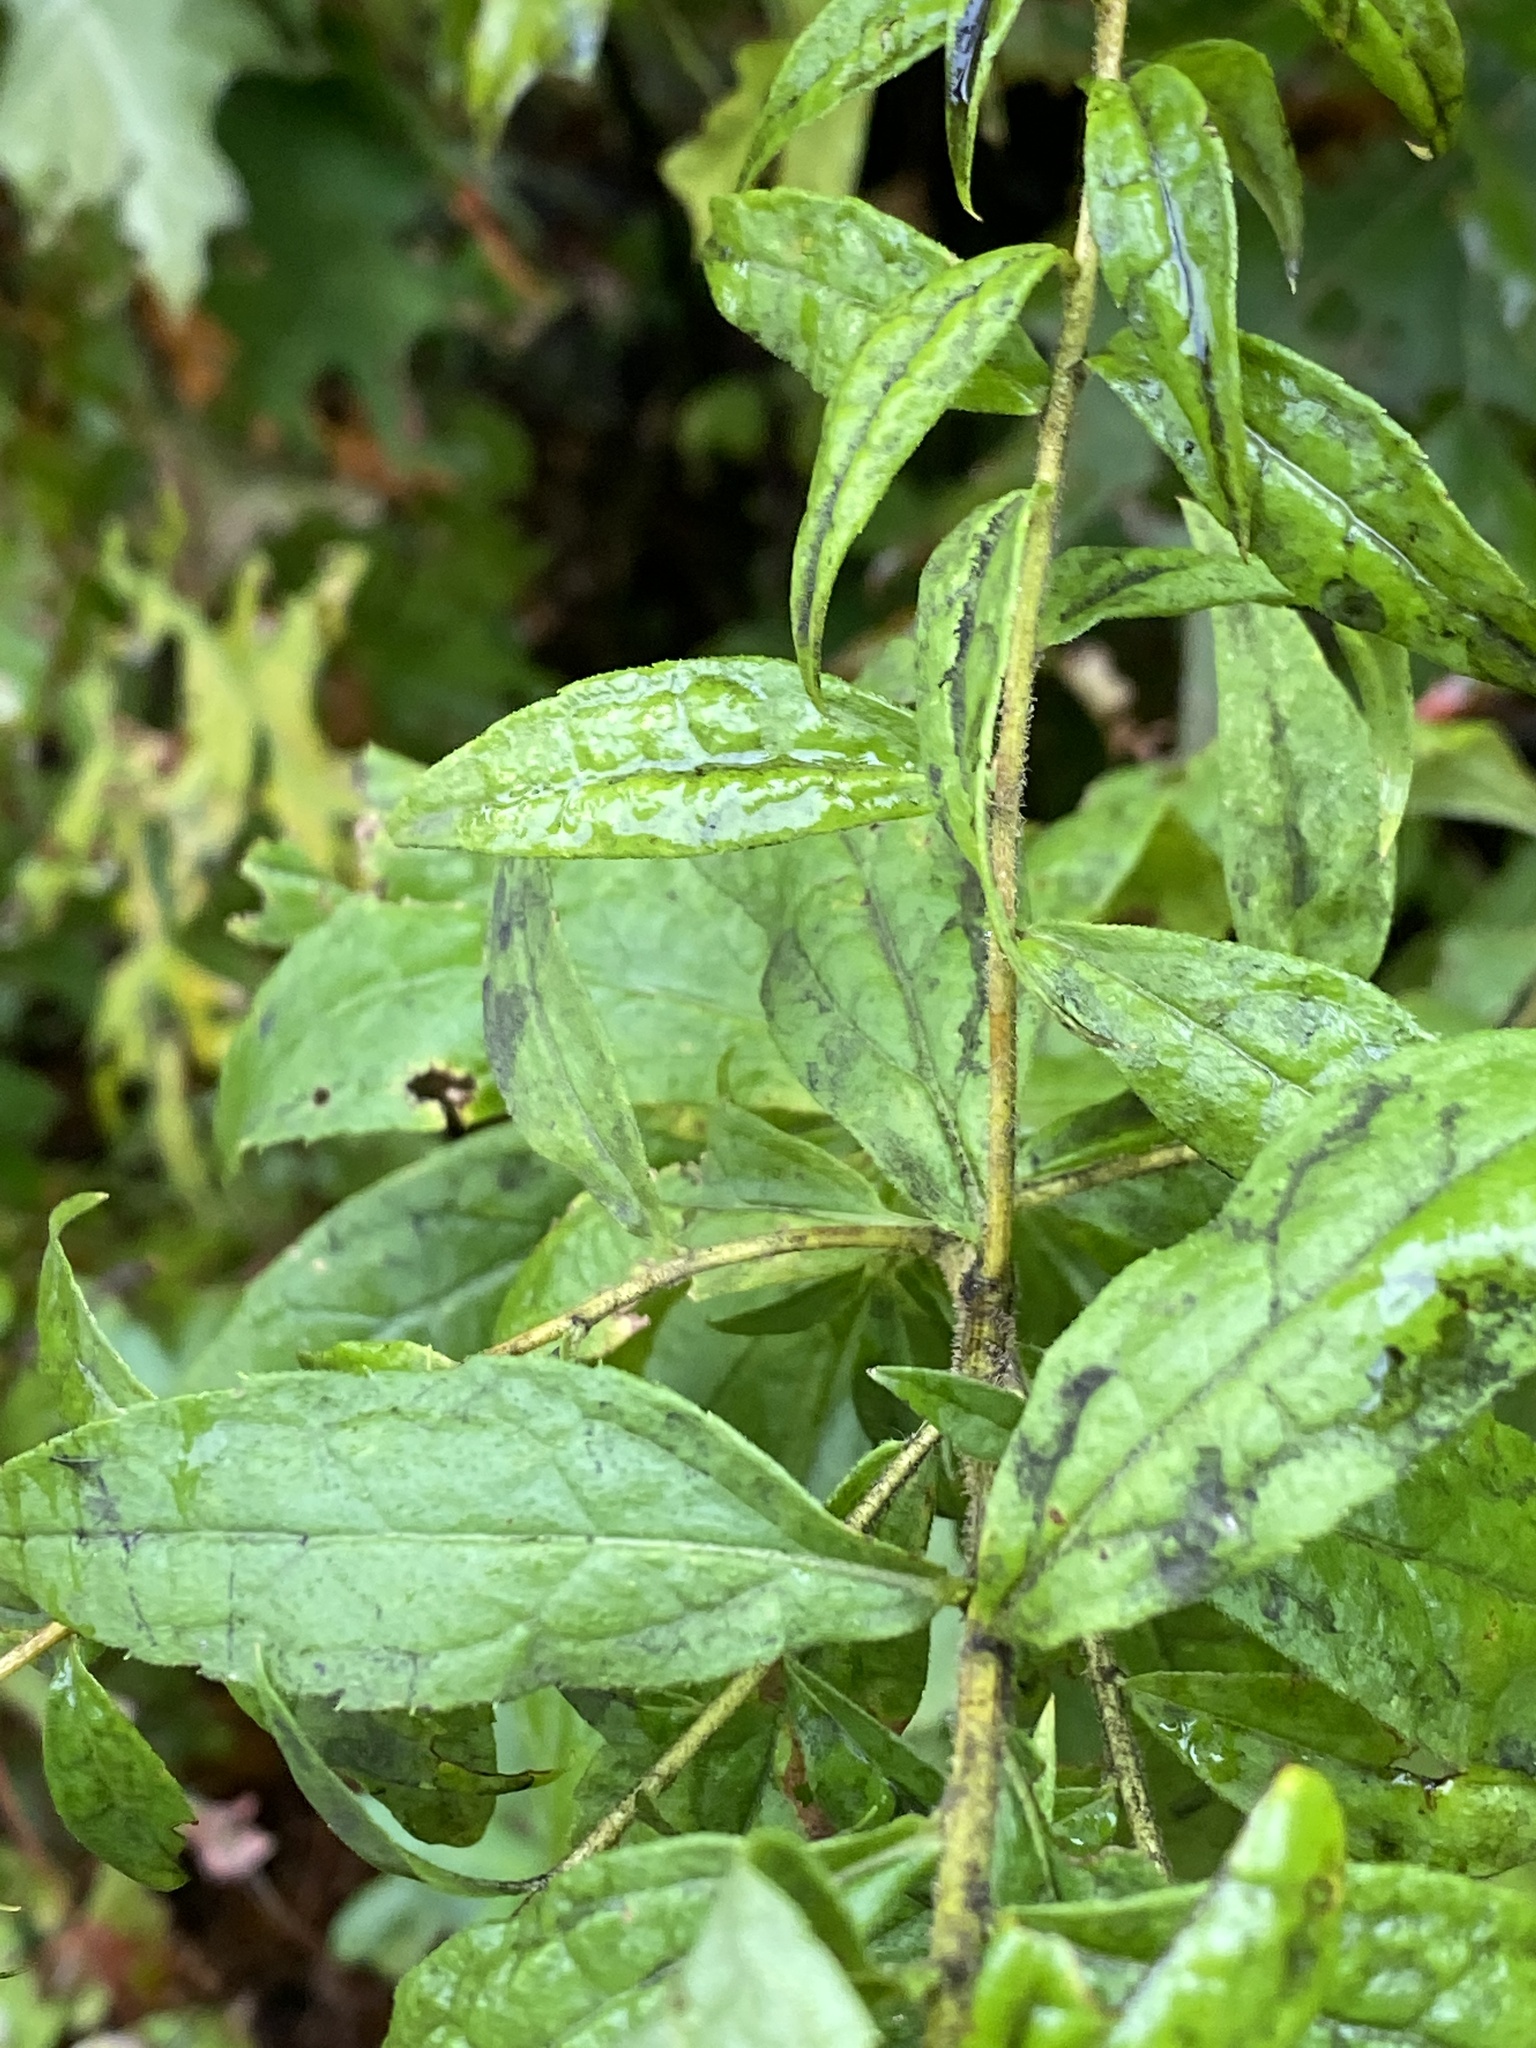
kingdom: Plantae
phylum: Tracheophyta
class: Magnoliopsida
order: Asterales
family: Asteraceae
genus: Solidago
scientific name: Solidago rugosa
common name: Rough-stemmed goldenrod
